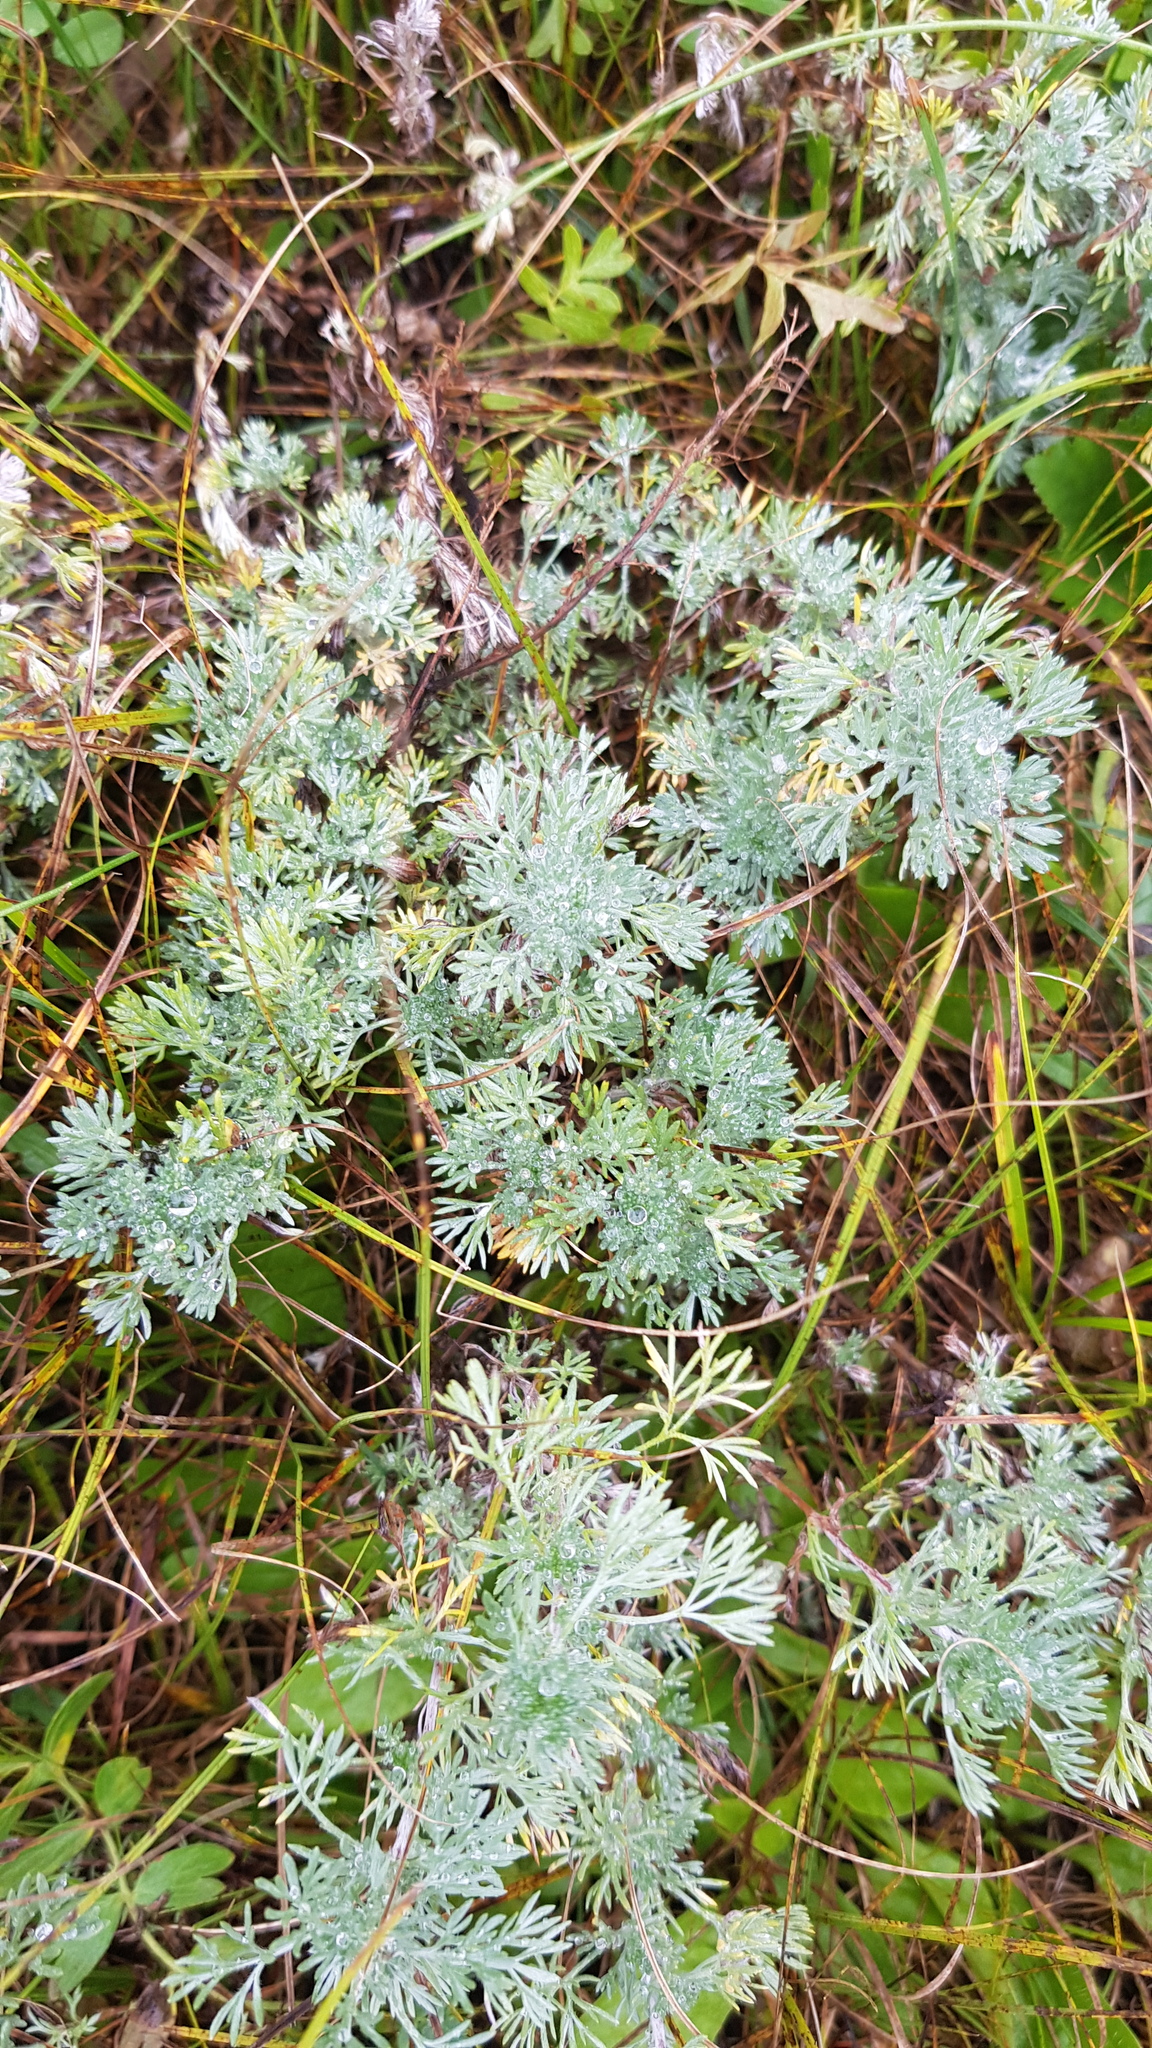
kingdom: Plantae
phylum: Tracheophyta
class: Magnoliopsida
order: Asterales
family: Asteraceae
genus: Artemisia
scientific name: Artemisia frigida
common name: Prairie sagewort
